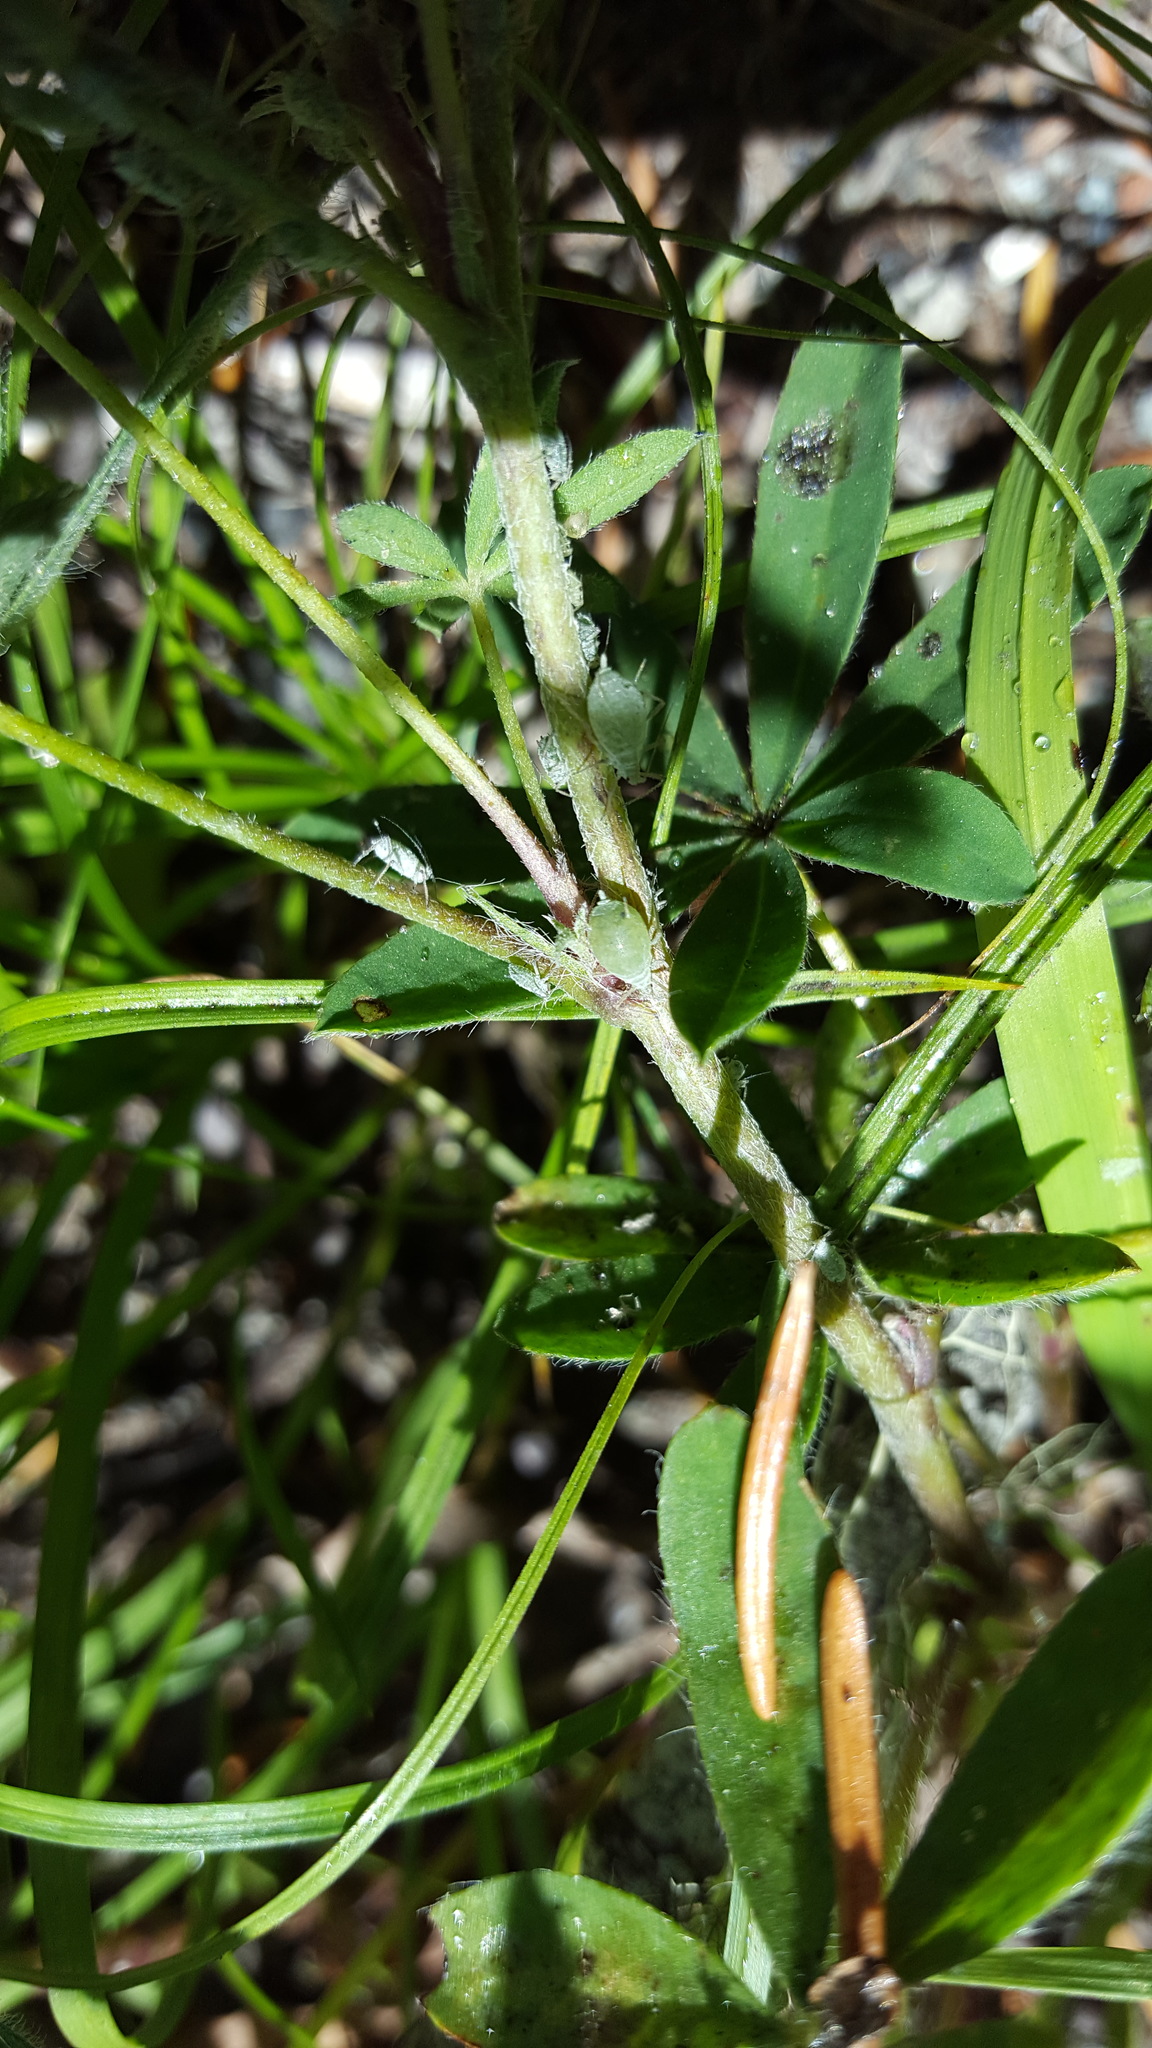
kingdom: Animalia
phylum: Arthropoda
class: Insecta
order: Hemiptera
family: Aphididae
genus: Macrosiphum
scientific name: Macrosiphum albifrons
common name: Lupine aphid
